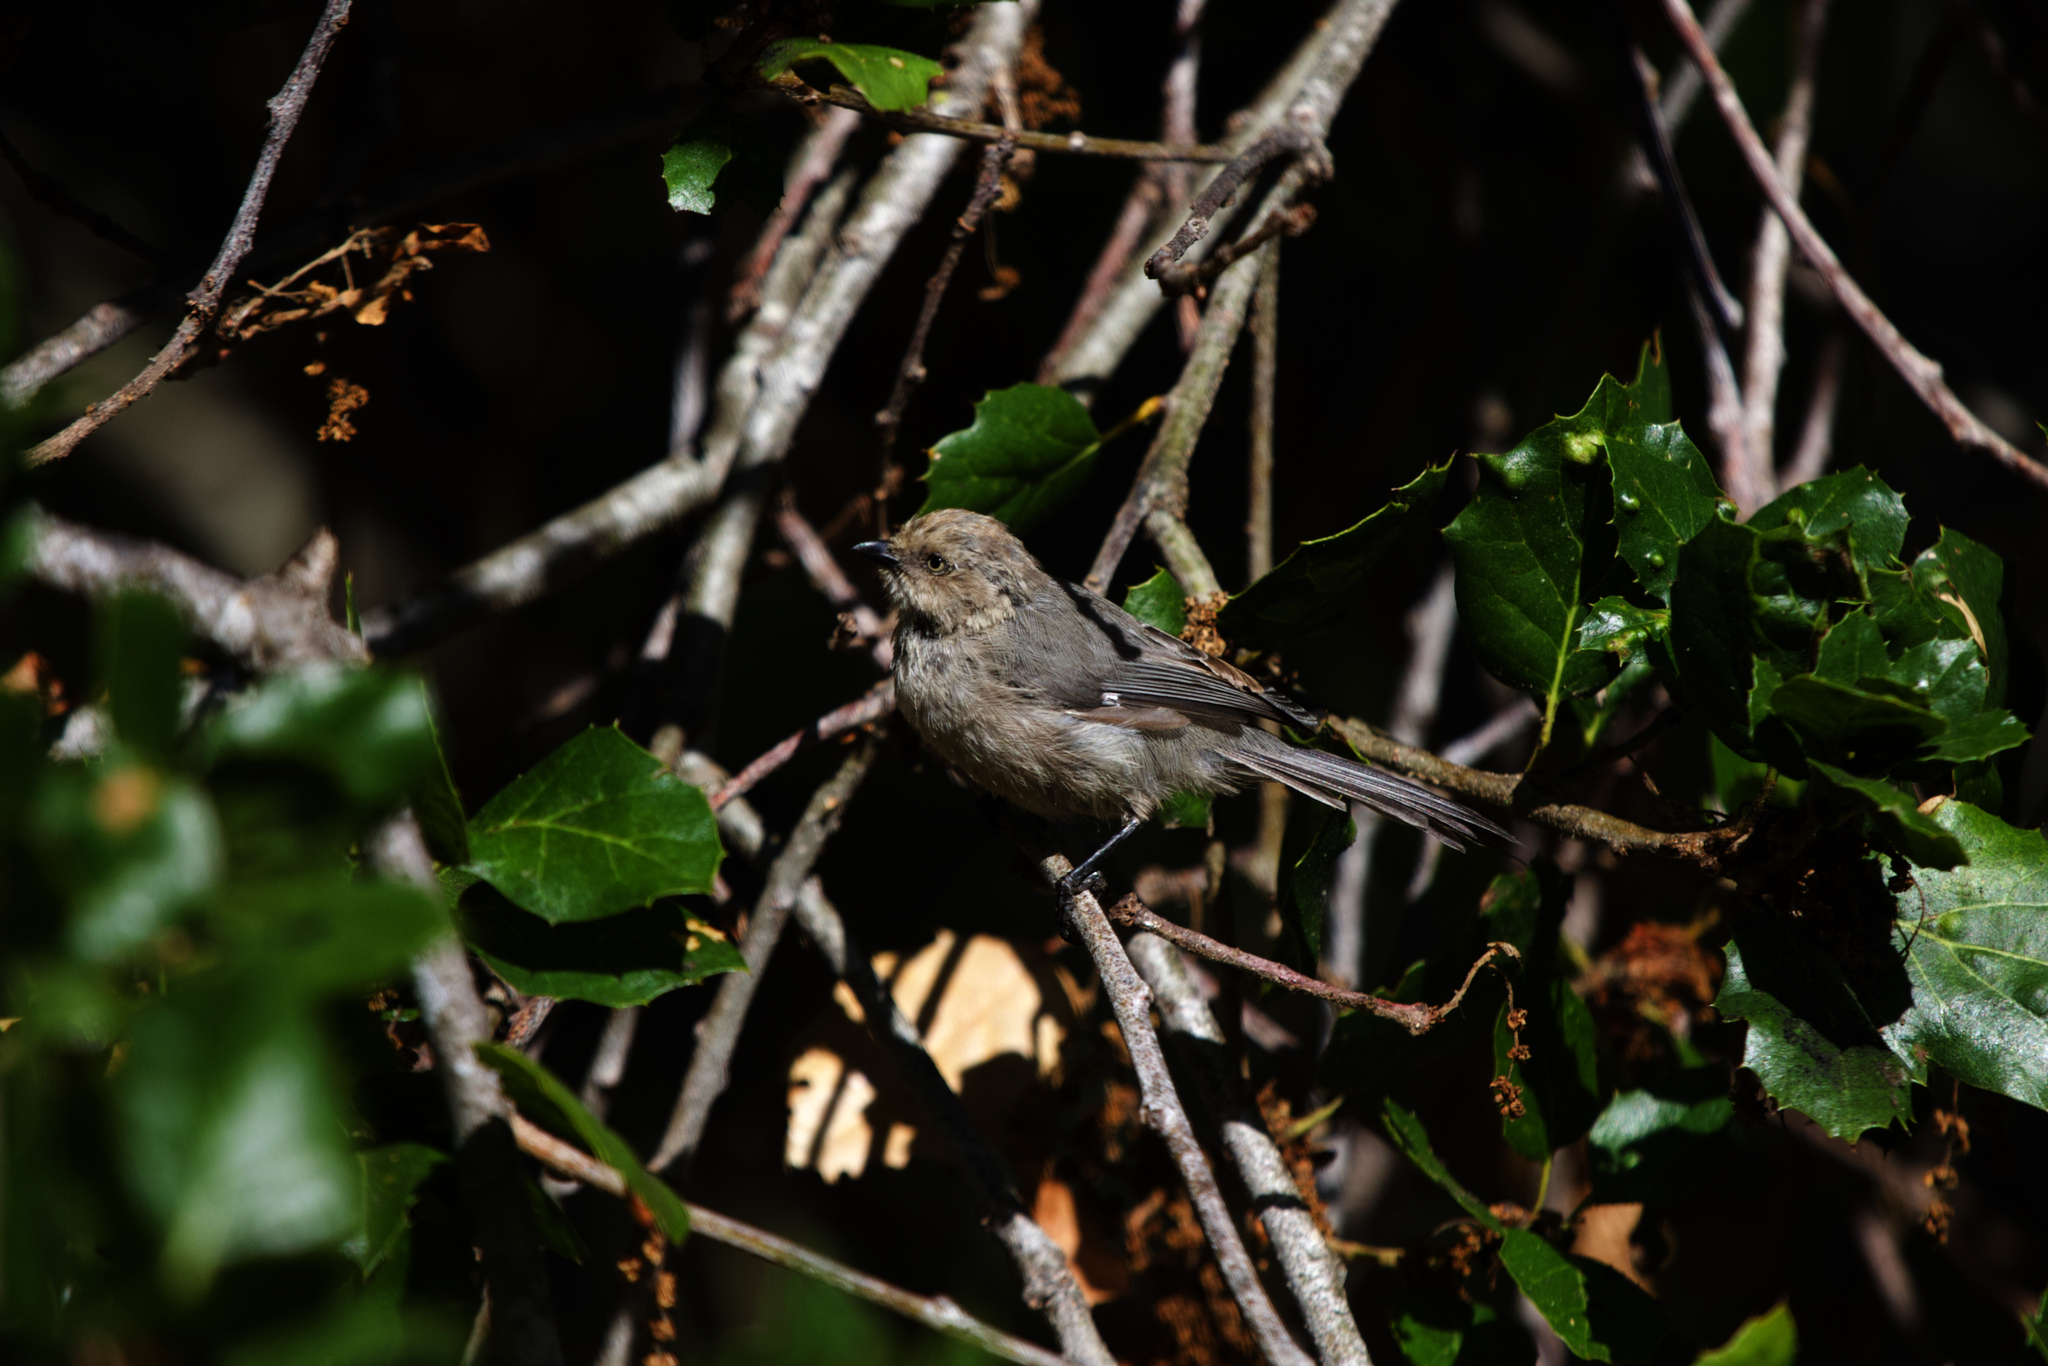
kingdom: Animalia
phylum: Chordata
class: Aves
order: Passeriformes
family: Aegithalidae
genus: Psaltriparus
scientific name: Psaltriparus minimus
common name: American bushtit
